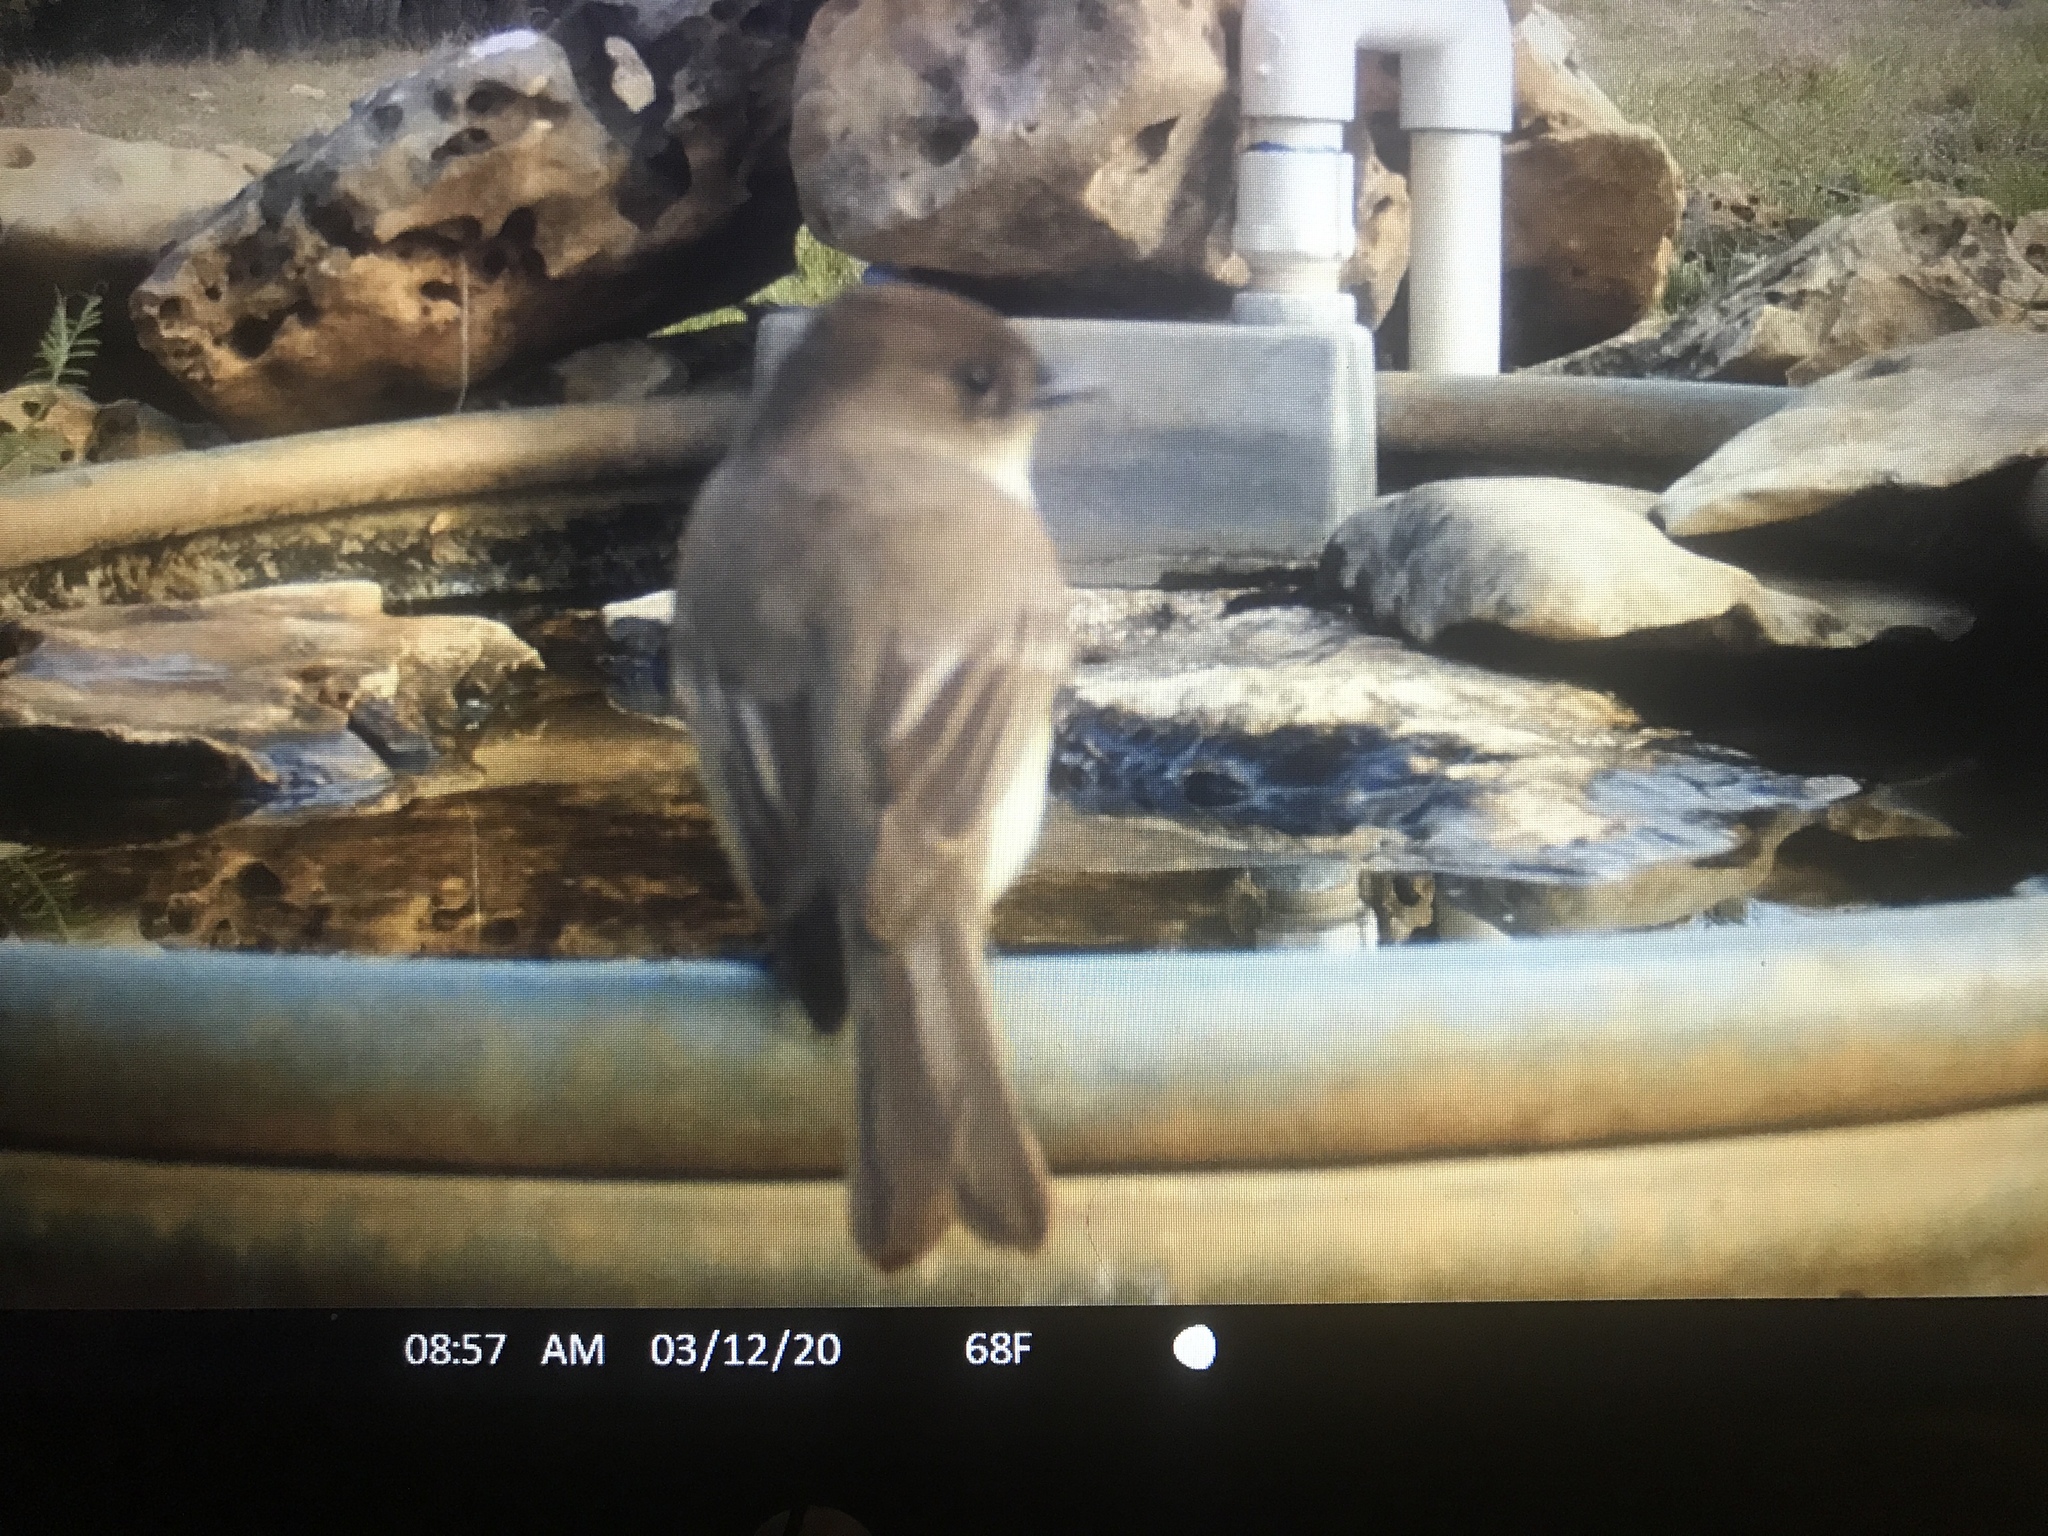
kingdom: Animalia
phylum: Chordata
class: Aves
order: Passeriformes
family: Tyrannidae
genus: Sayornis
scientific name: Sayornis phoebe
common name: Eastern phoebe
